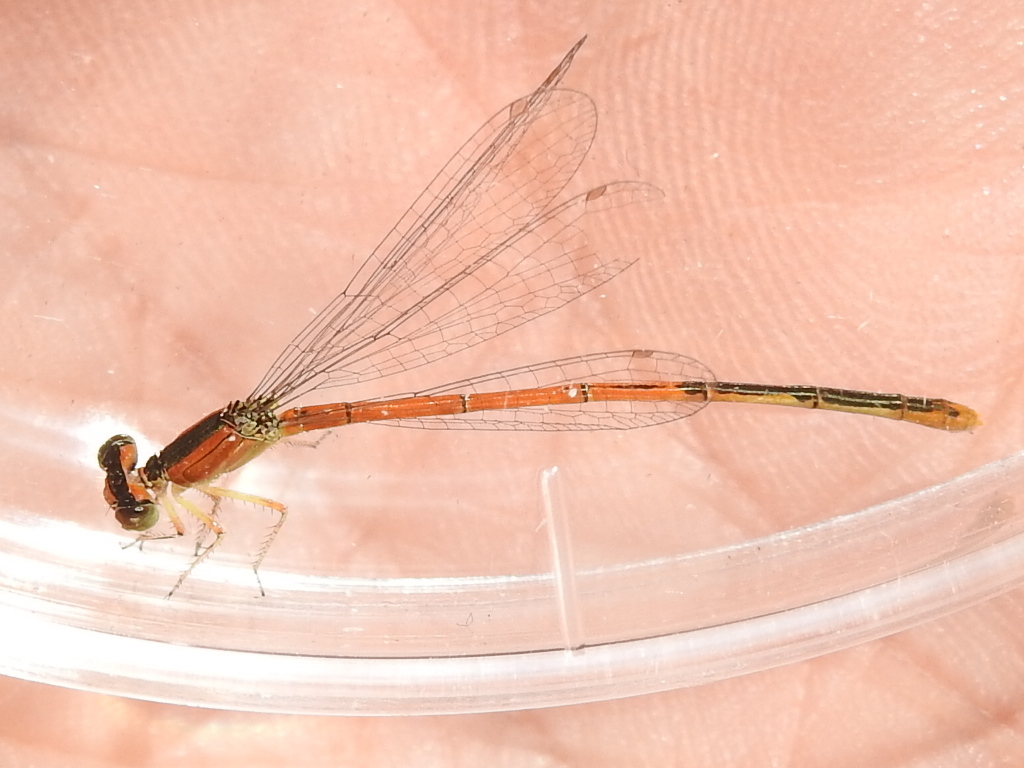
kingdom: Animalia
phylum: Arthropoda
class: Insecta
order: Odonata
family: Coenagrionidae
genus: Ischnura
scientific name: Ischnura hastata
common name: Citrine forktail
